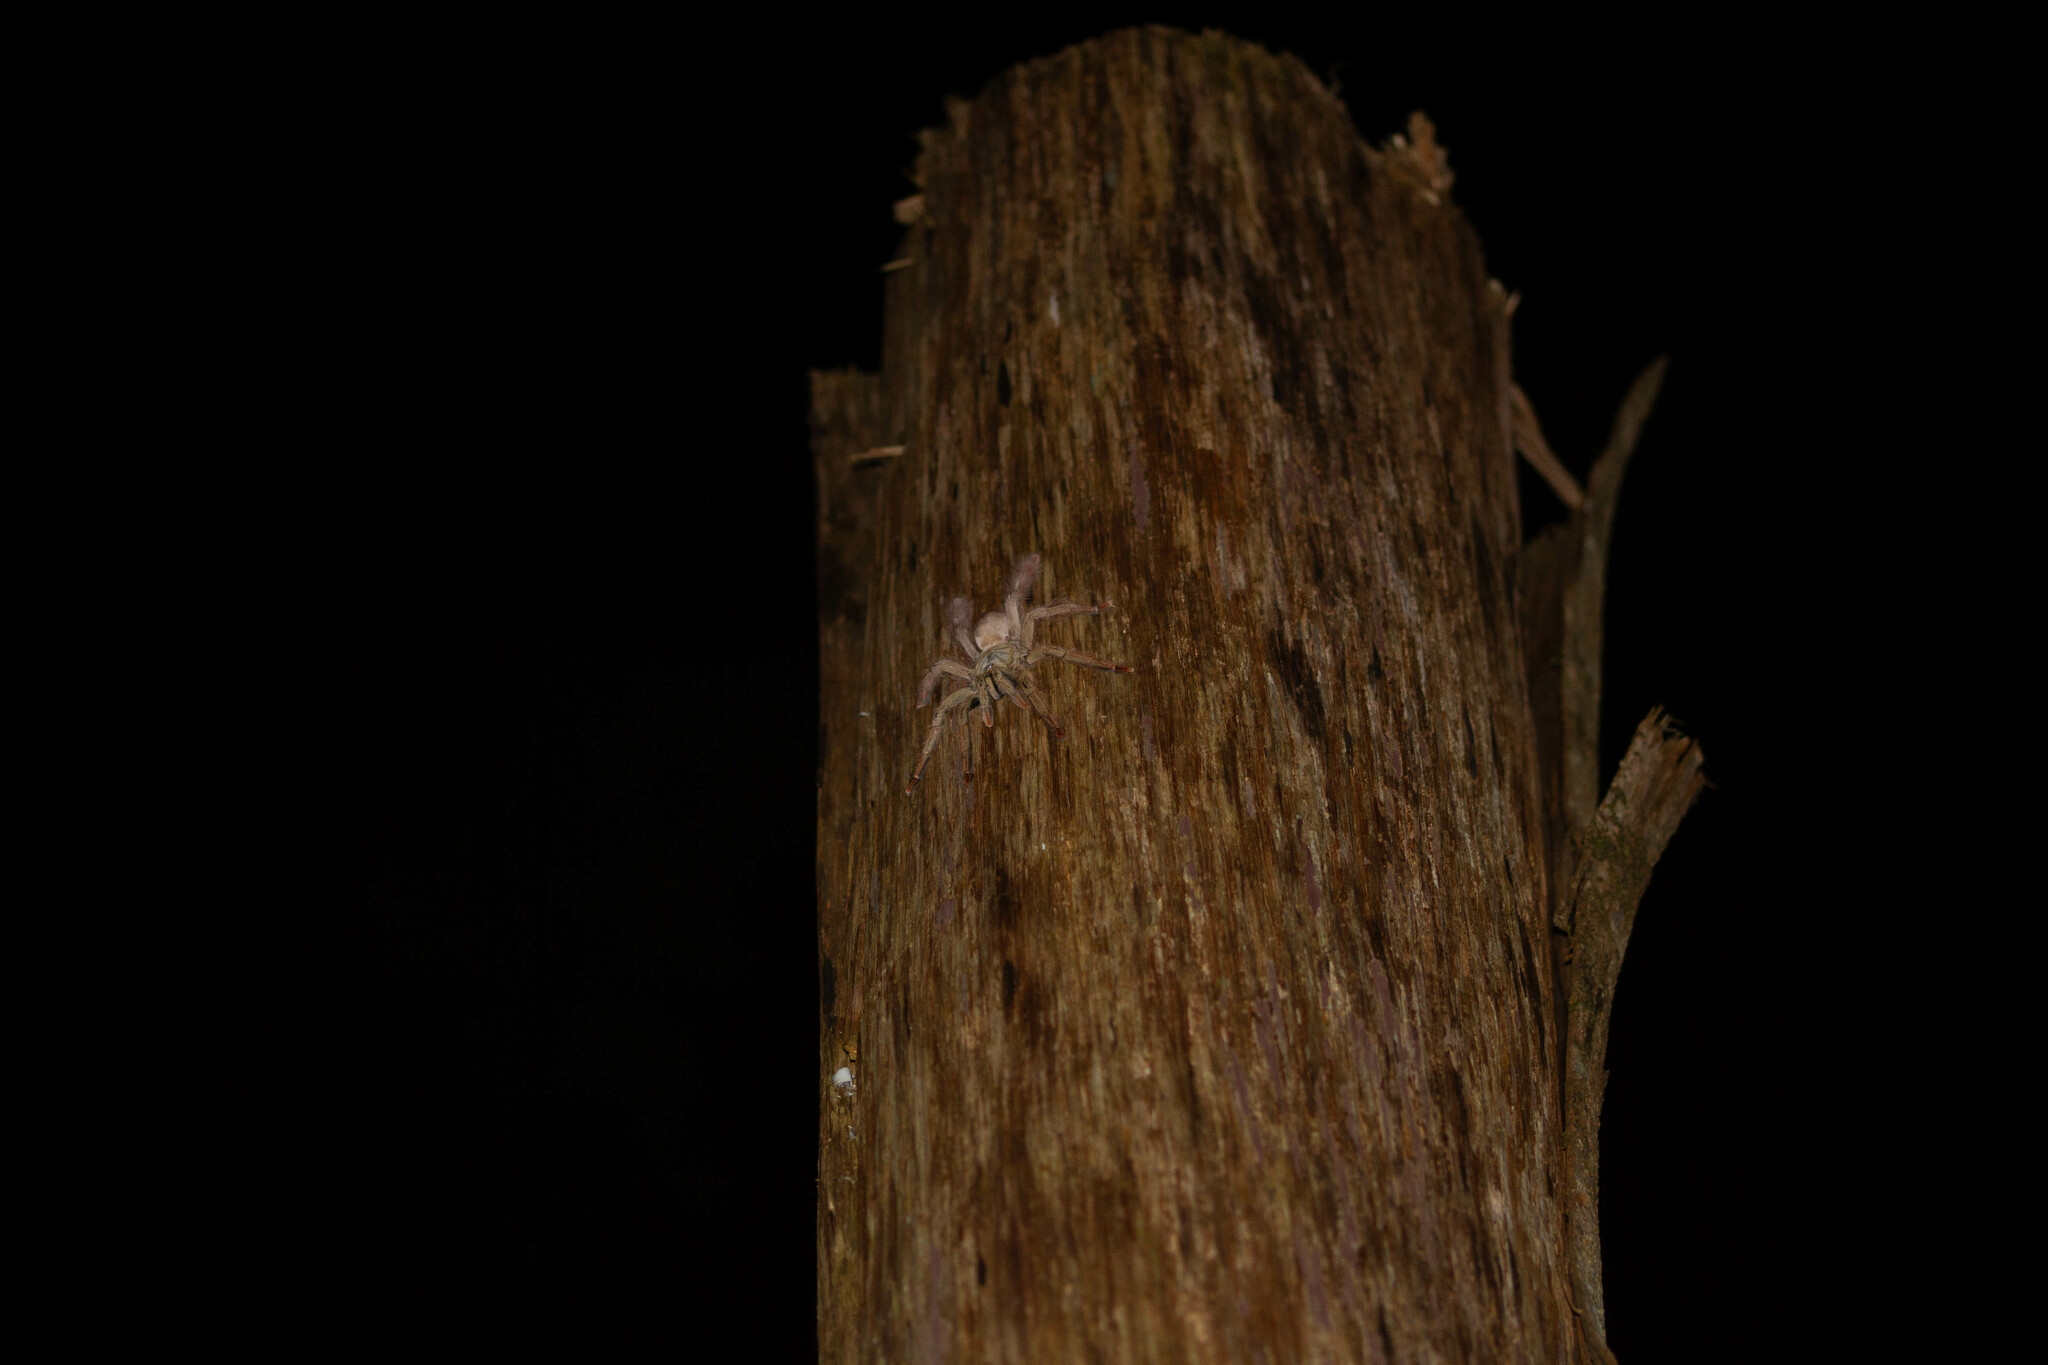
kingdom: Animalia
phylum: Arthropoda
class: Arachnida
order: Araneae
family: Theraphosidae
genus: Amazonius
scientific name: Amazonius germani
